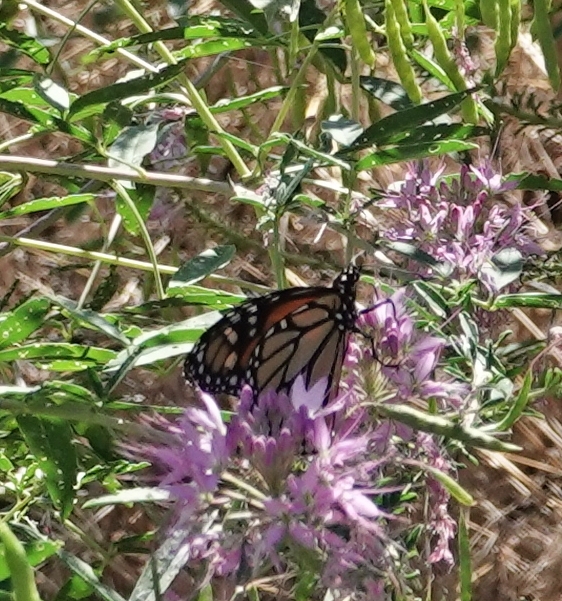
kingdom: Animalia
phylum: Arthropoda
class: Insecta
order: Lepidoptera
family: Nymphalidae
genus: Danaus
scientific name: Danaus plexippus
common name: Monarch
